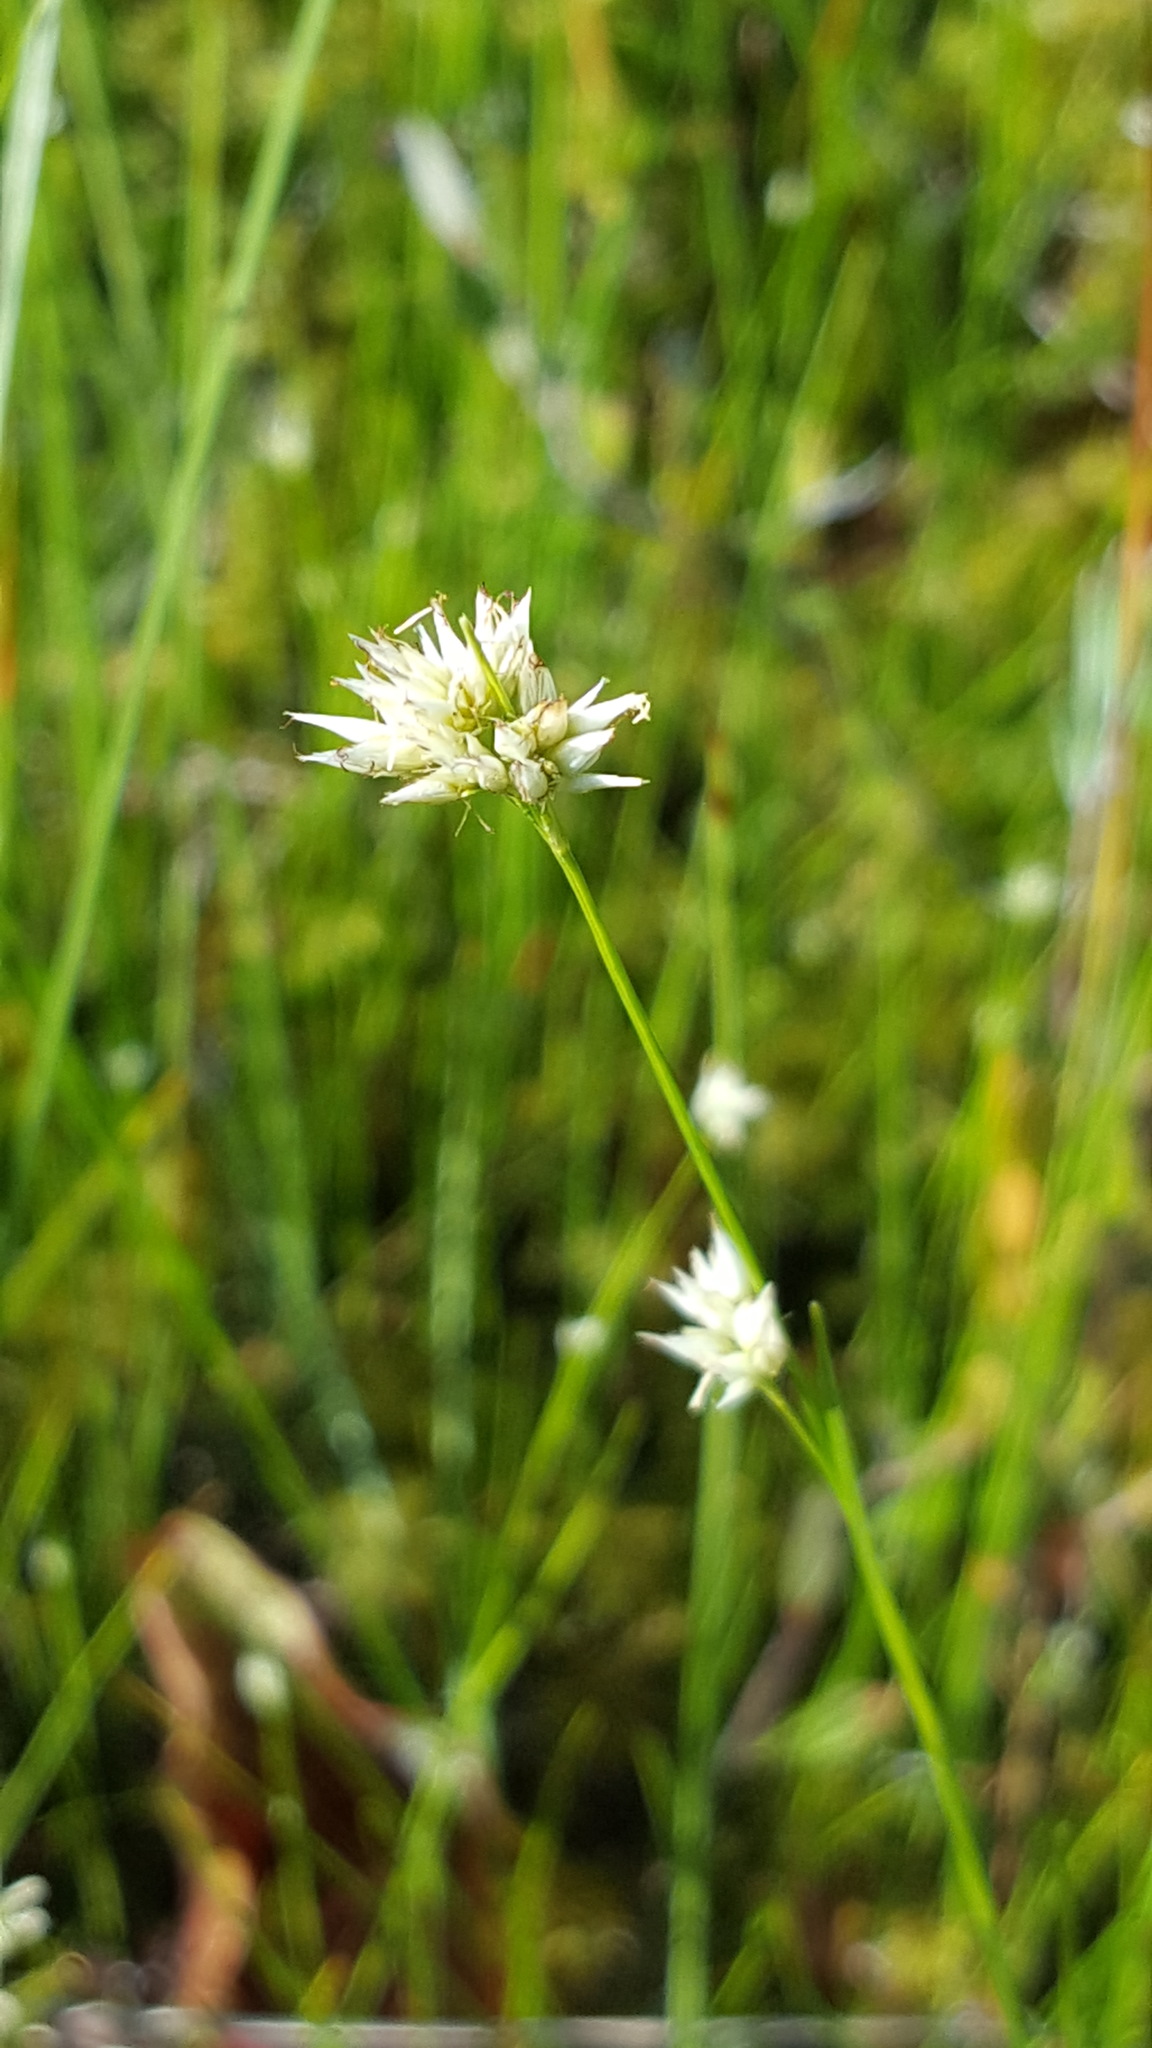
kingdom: Plantae
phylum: Tracheophyta
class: Liliopsida
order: Poales
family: Cyperaceae
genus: Rhynchospora
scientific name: Rhynchospora alba
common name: White beak-sedge
